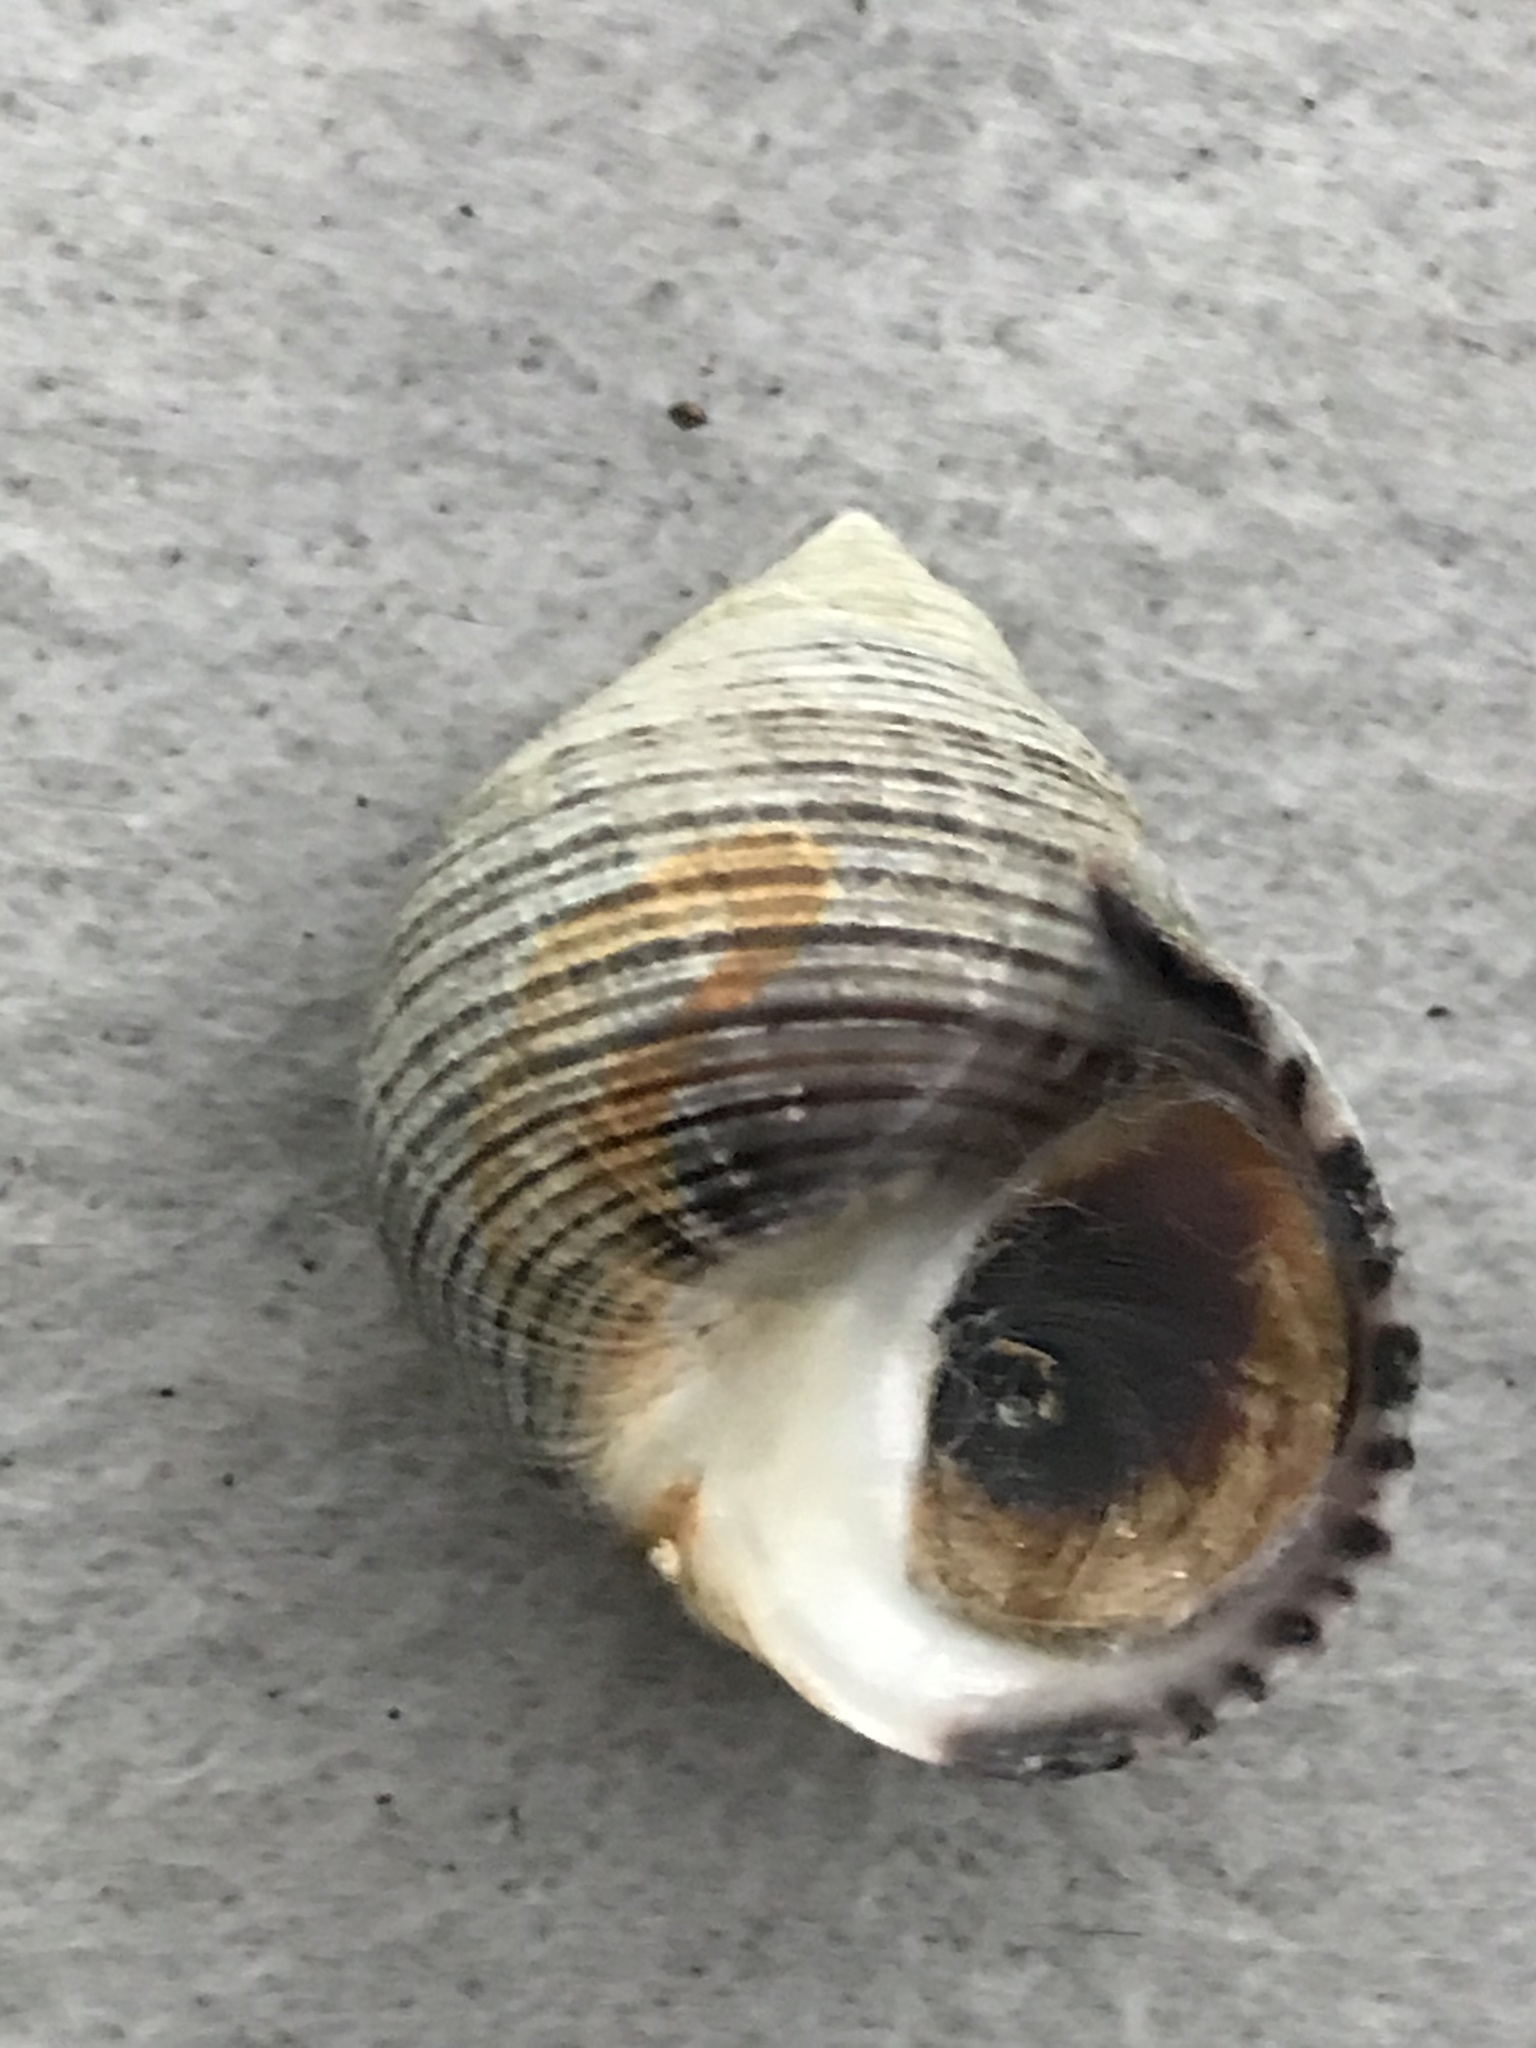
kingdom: Animalia
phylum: Mollusca
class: Gastropoda
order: Littorinimorpha
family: Littorinidae
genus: Littorina
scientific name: Littorina littorea
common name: Common periwinkle
